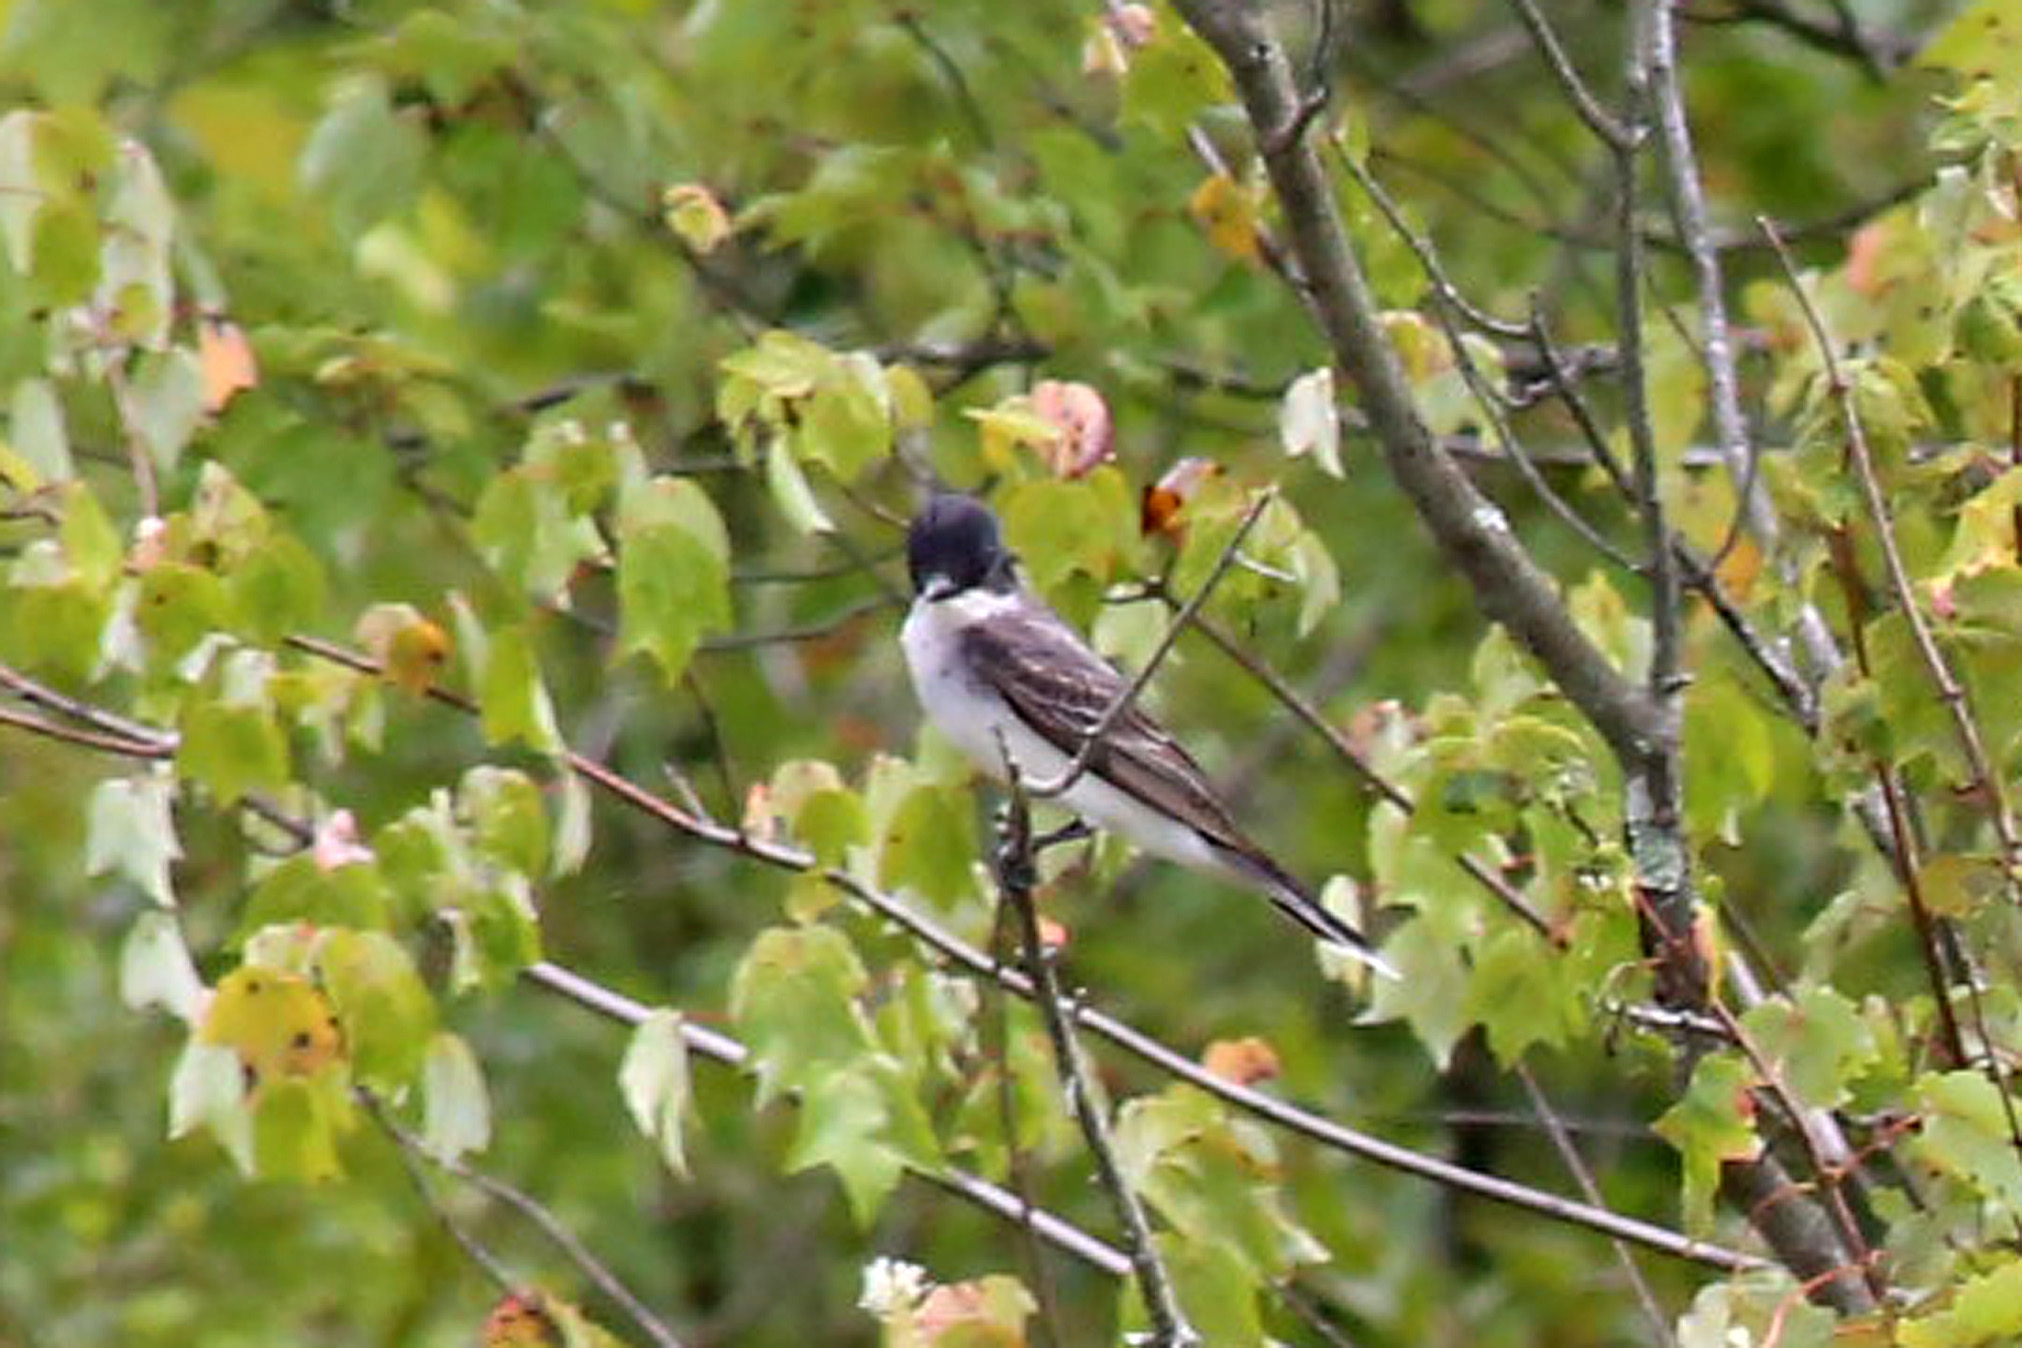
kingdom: Animalia
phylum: Chordata
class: Aves
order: Passeriformes
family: Tyrannidae
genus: Tyrannus
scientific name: Tyrannus tyrannus
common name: Eastern kingbird
